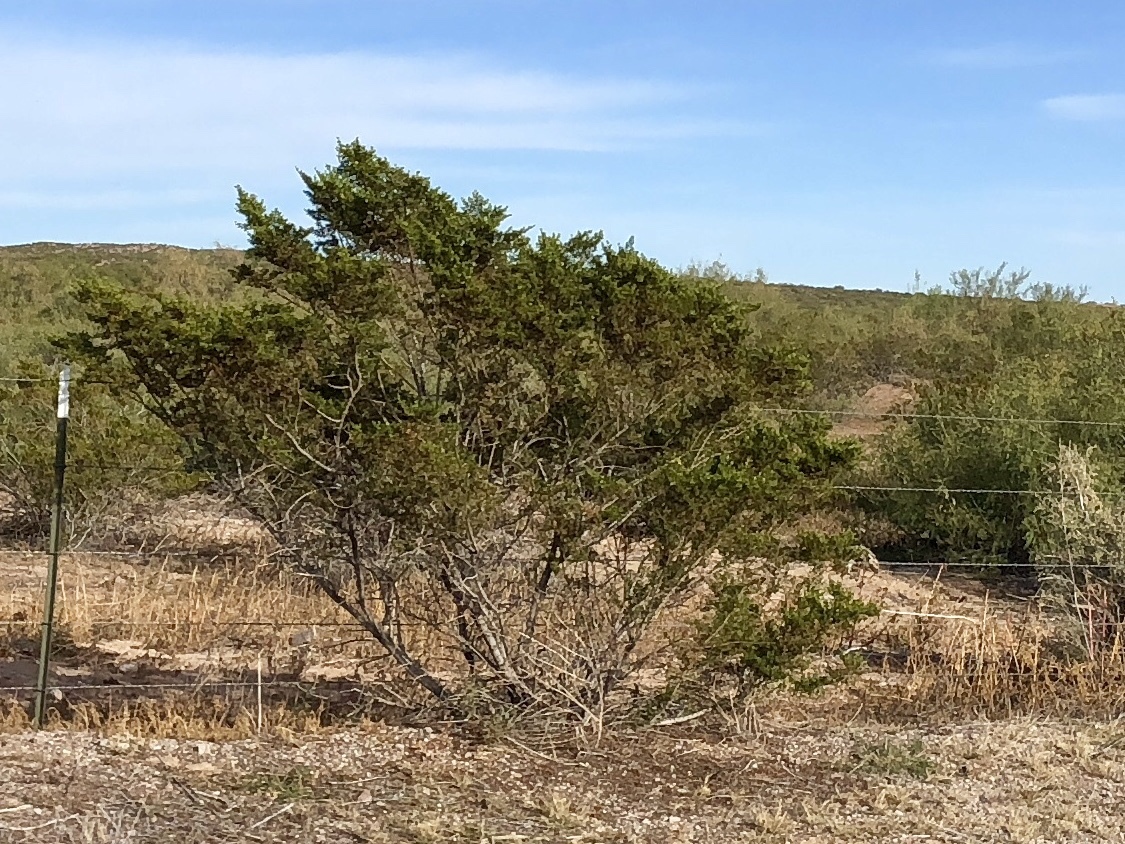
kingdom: Plantae
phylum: Tracheophyta
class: Magnoliopsida
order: Zygophyllales
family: Zygophyllaceae
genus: Larrea
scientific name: Larrea tridentata
